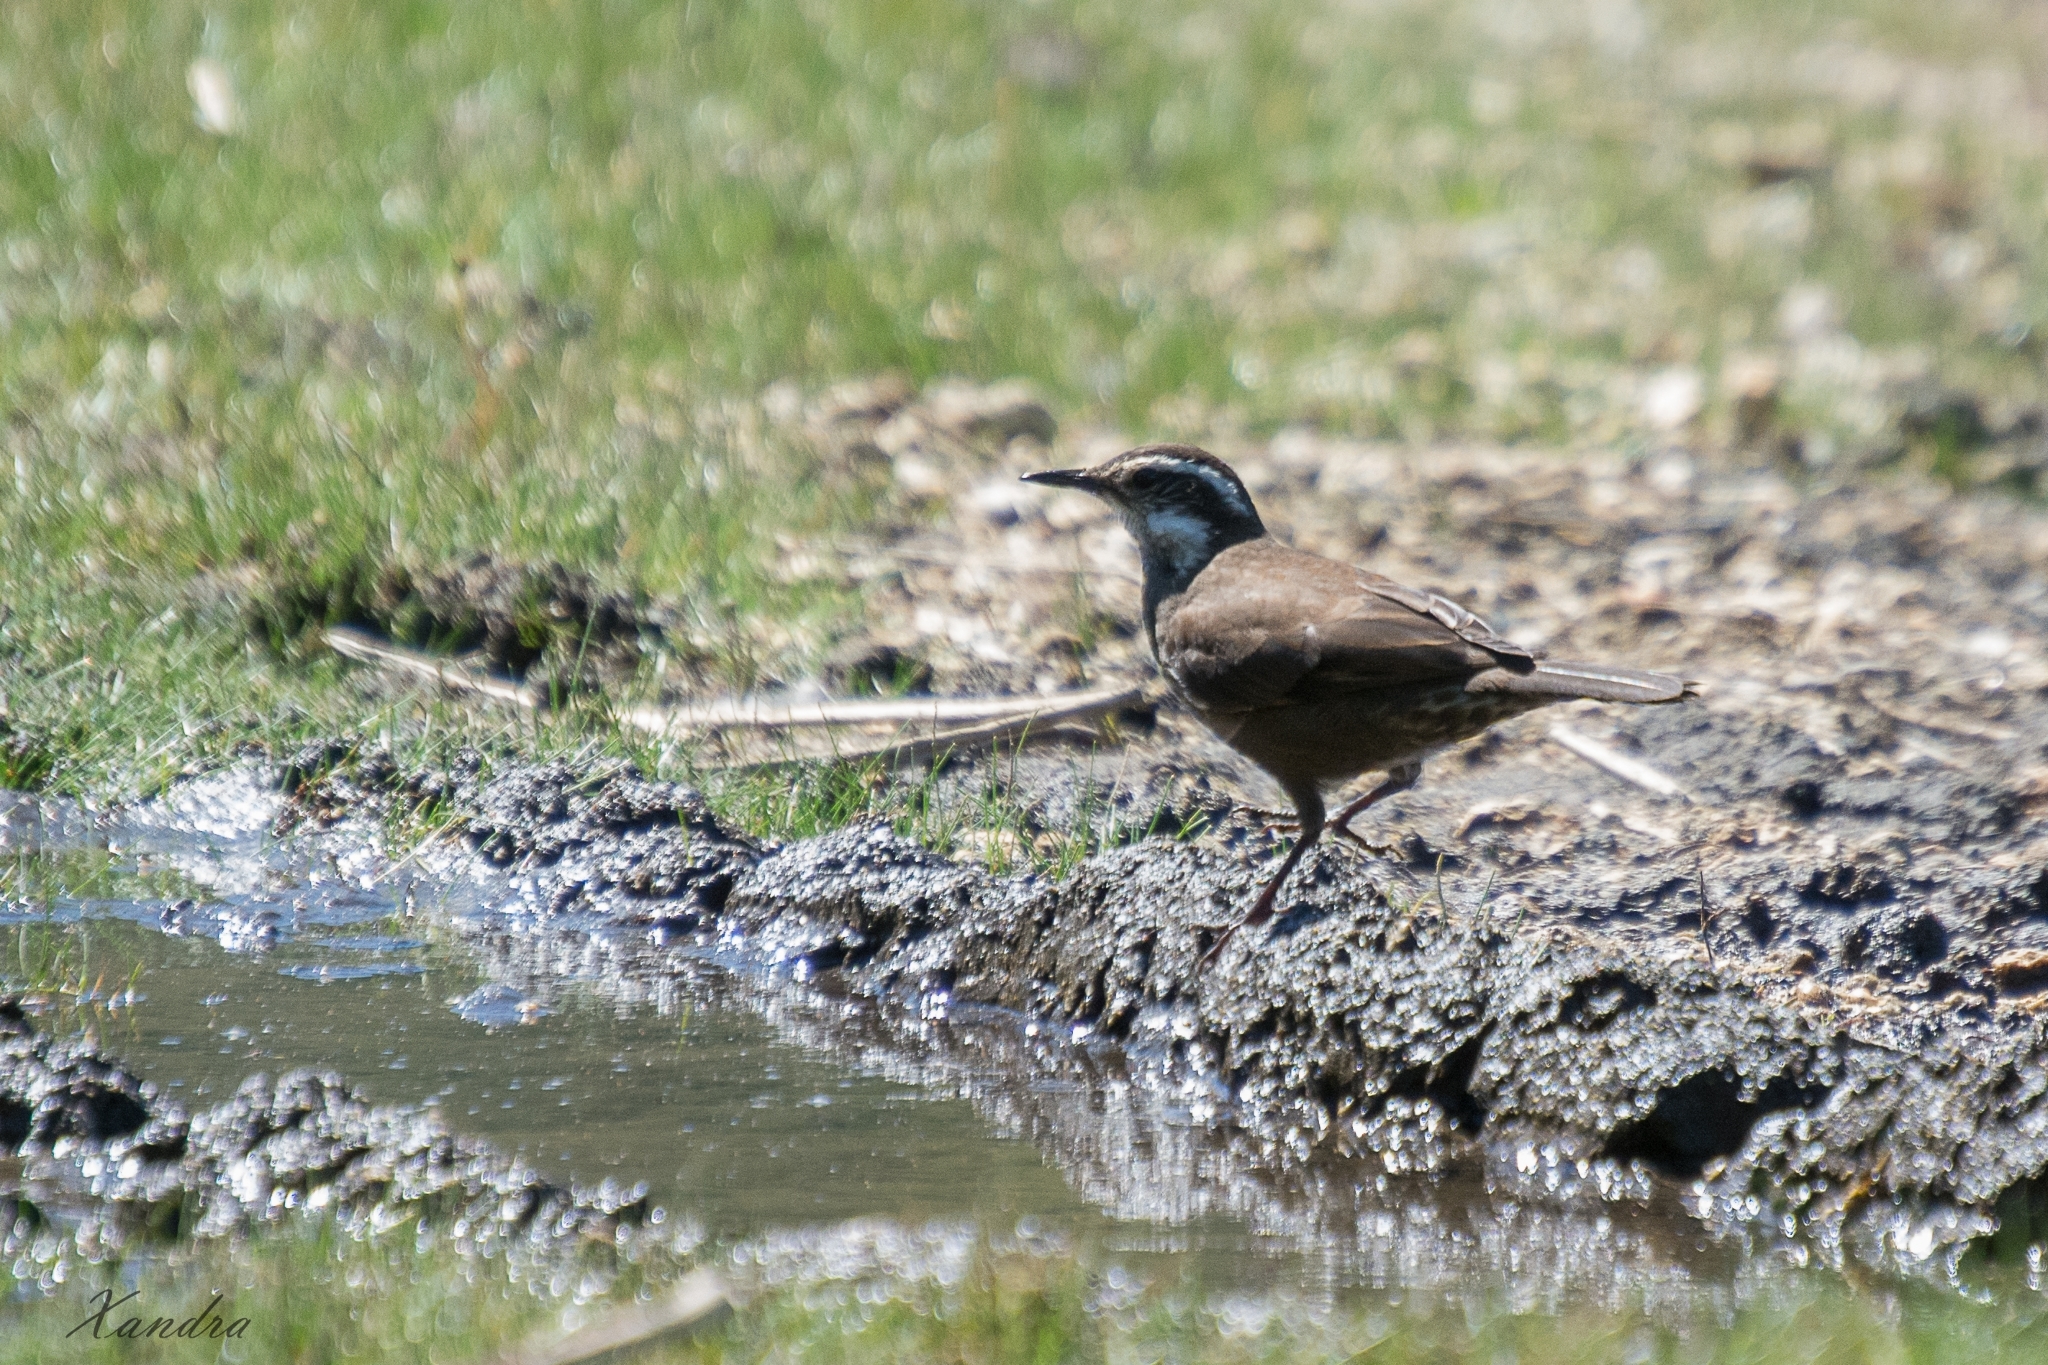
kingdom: Animalia
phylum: Chordata
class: Aves
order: Passeriformes
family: Furnariidae
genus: Cinclodes
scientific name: Cinclodes patagonicus
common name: Dark-bellied cinclodes
